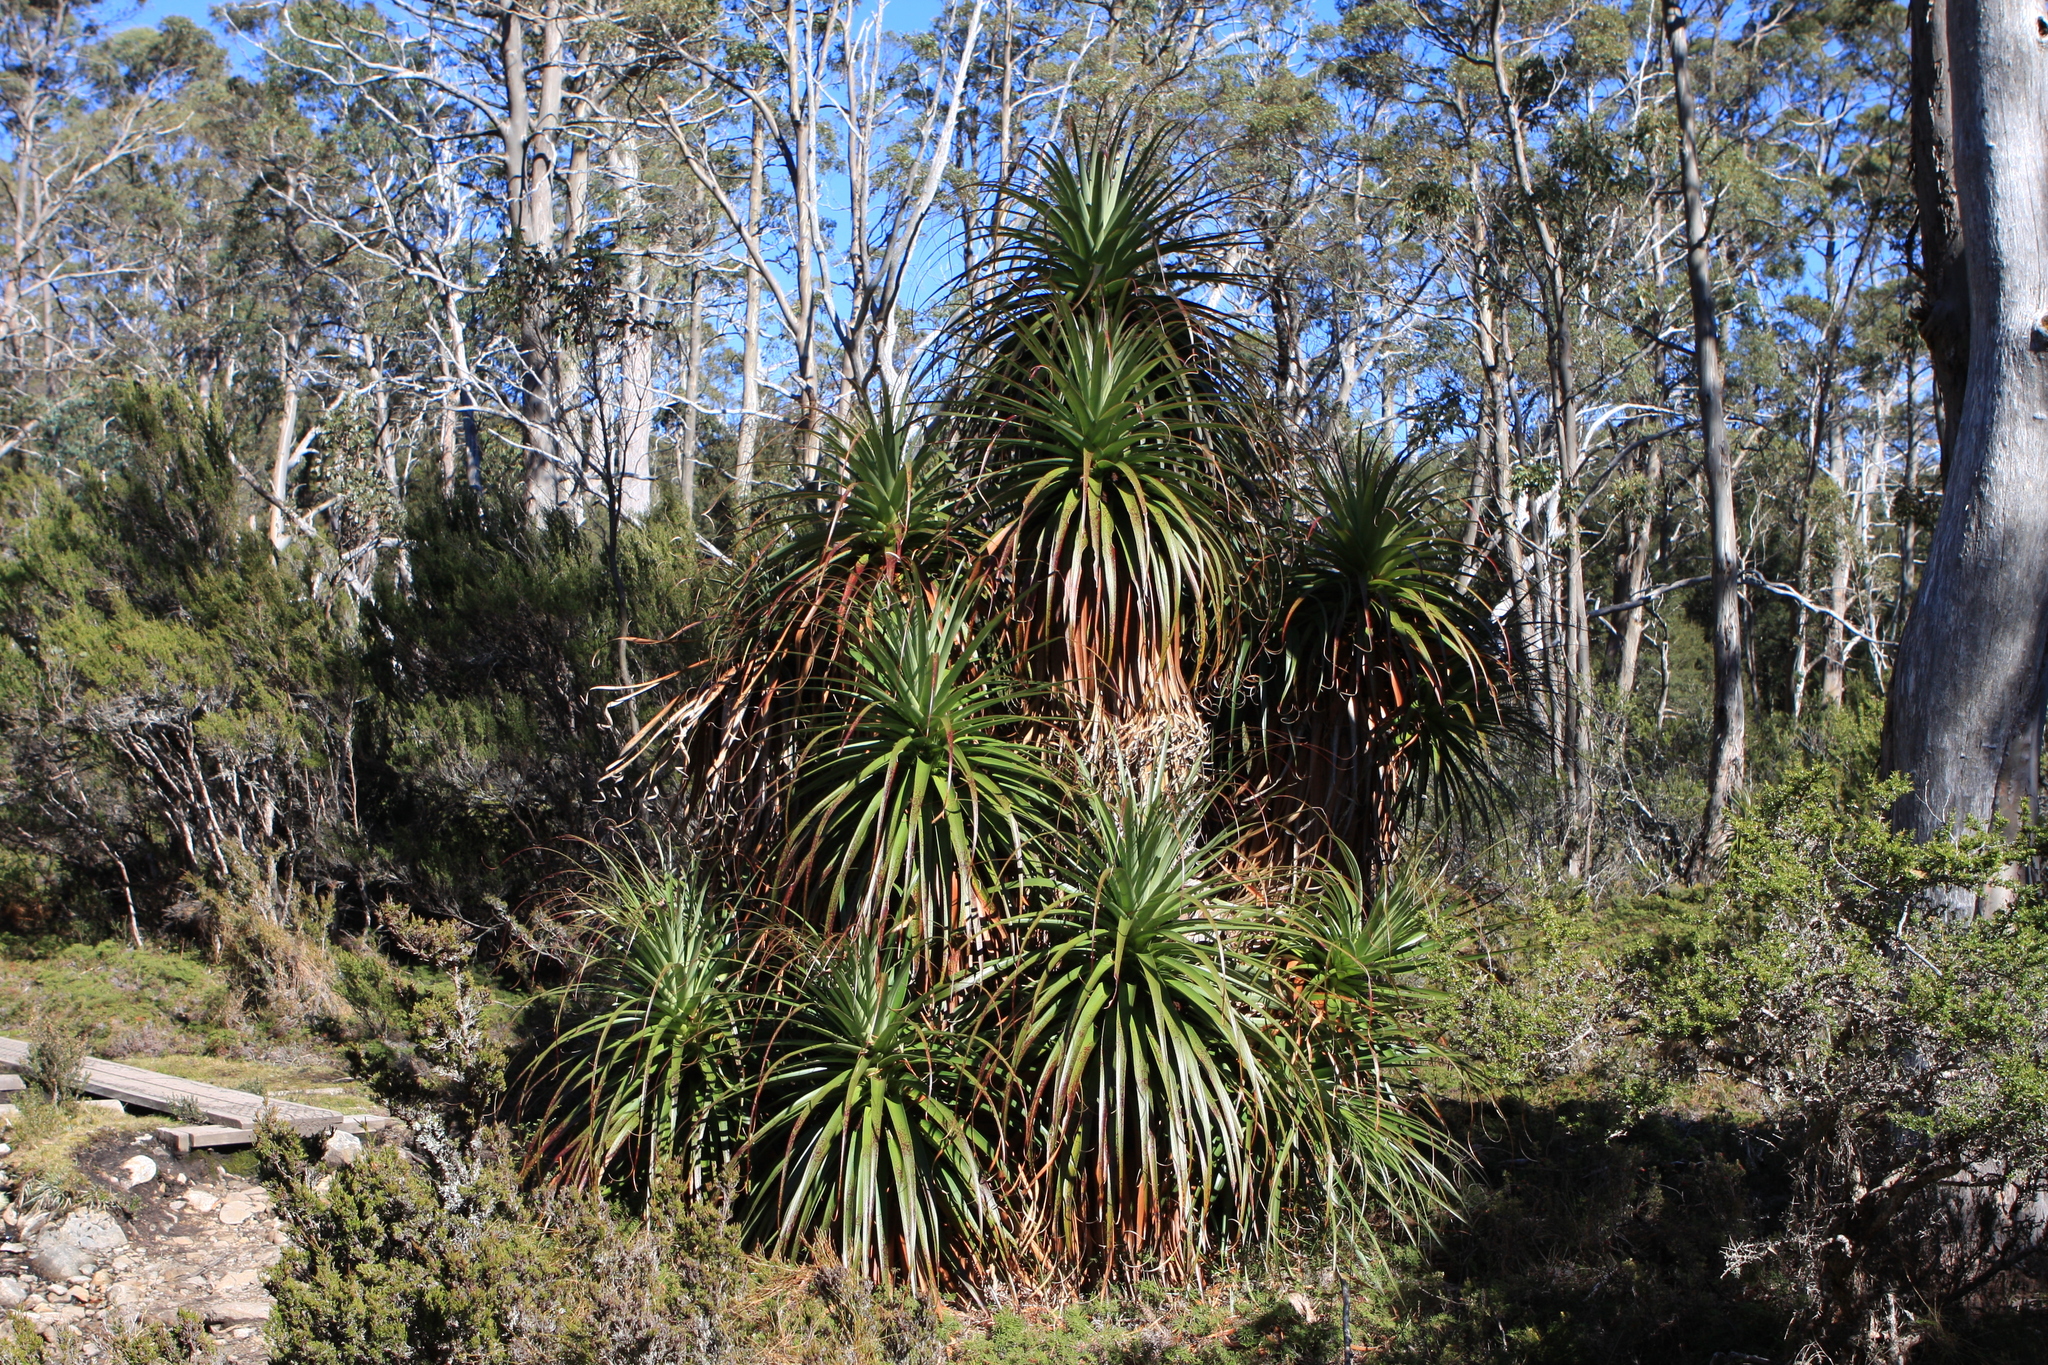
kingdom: Plantae
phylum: Tracheophyta
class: Magnoliopsida
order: Ericales
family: Ericaceae
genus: Dracophyllum
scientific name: Dracophyllum pandanifolium
